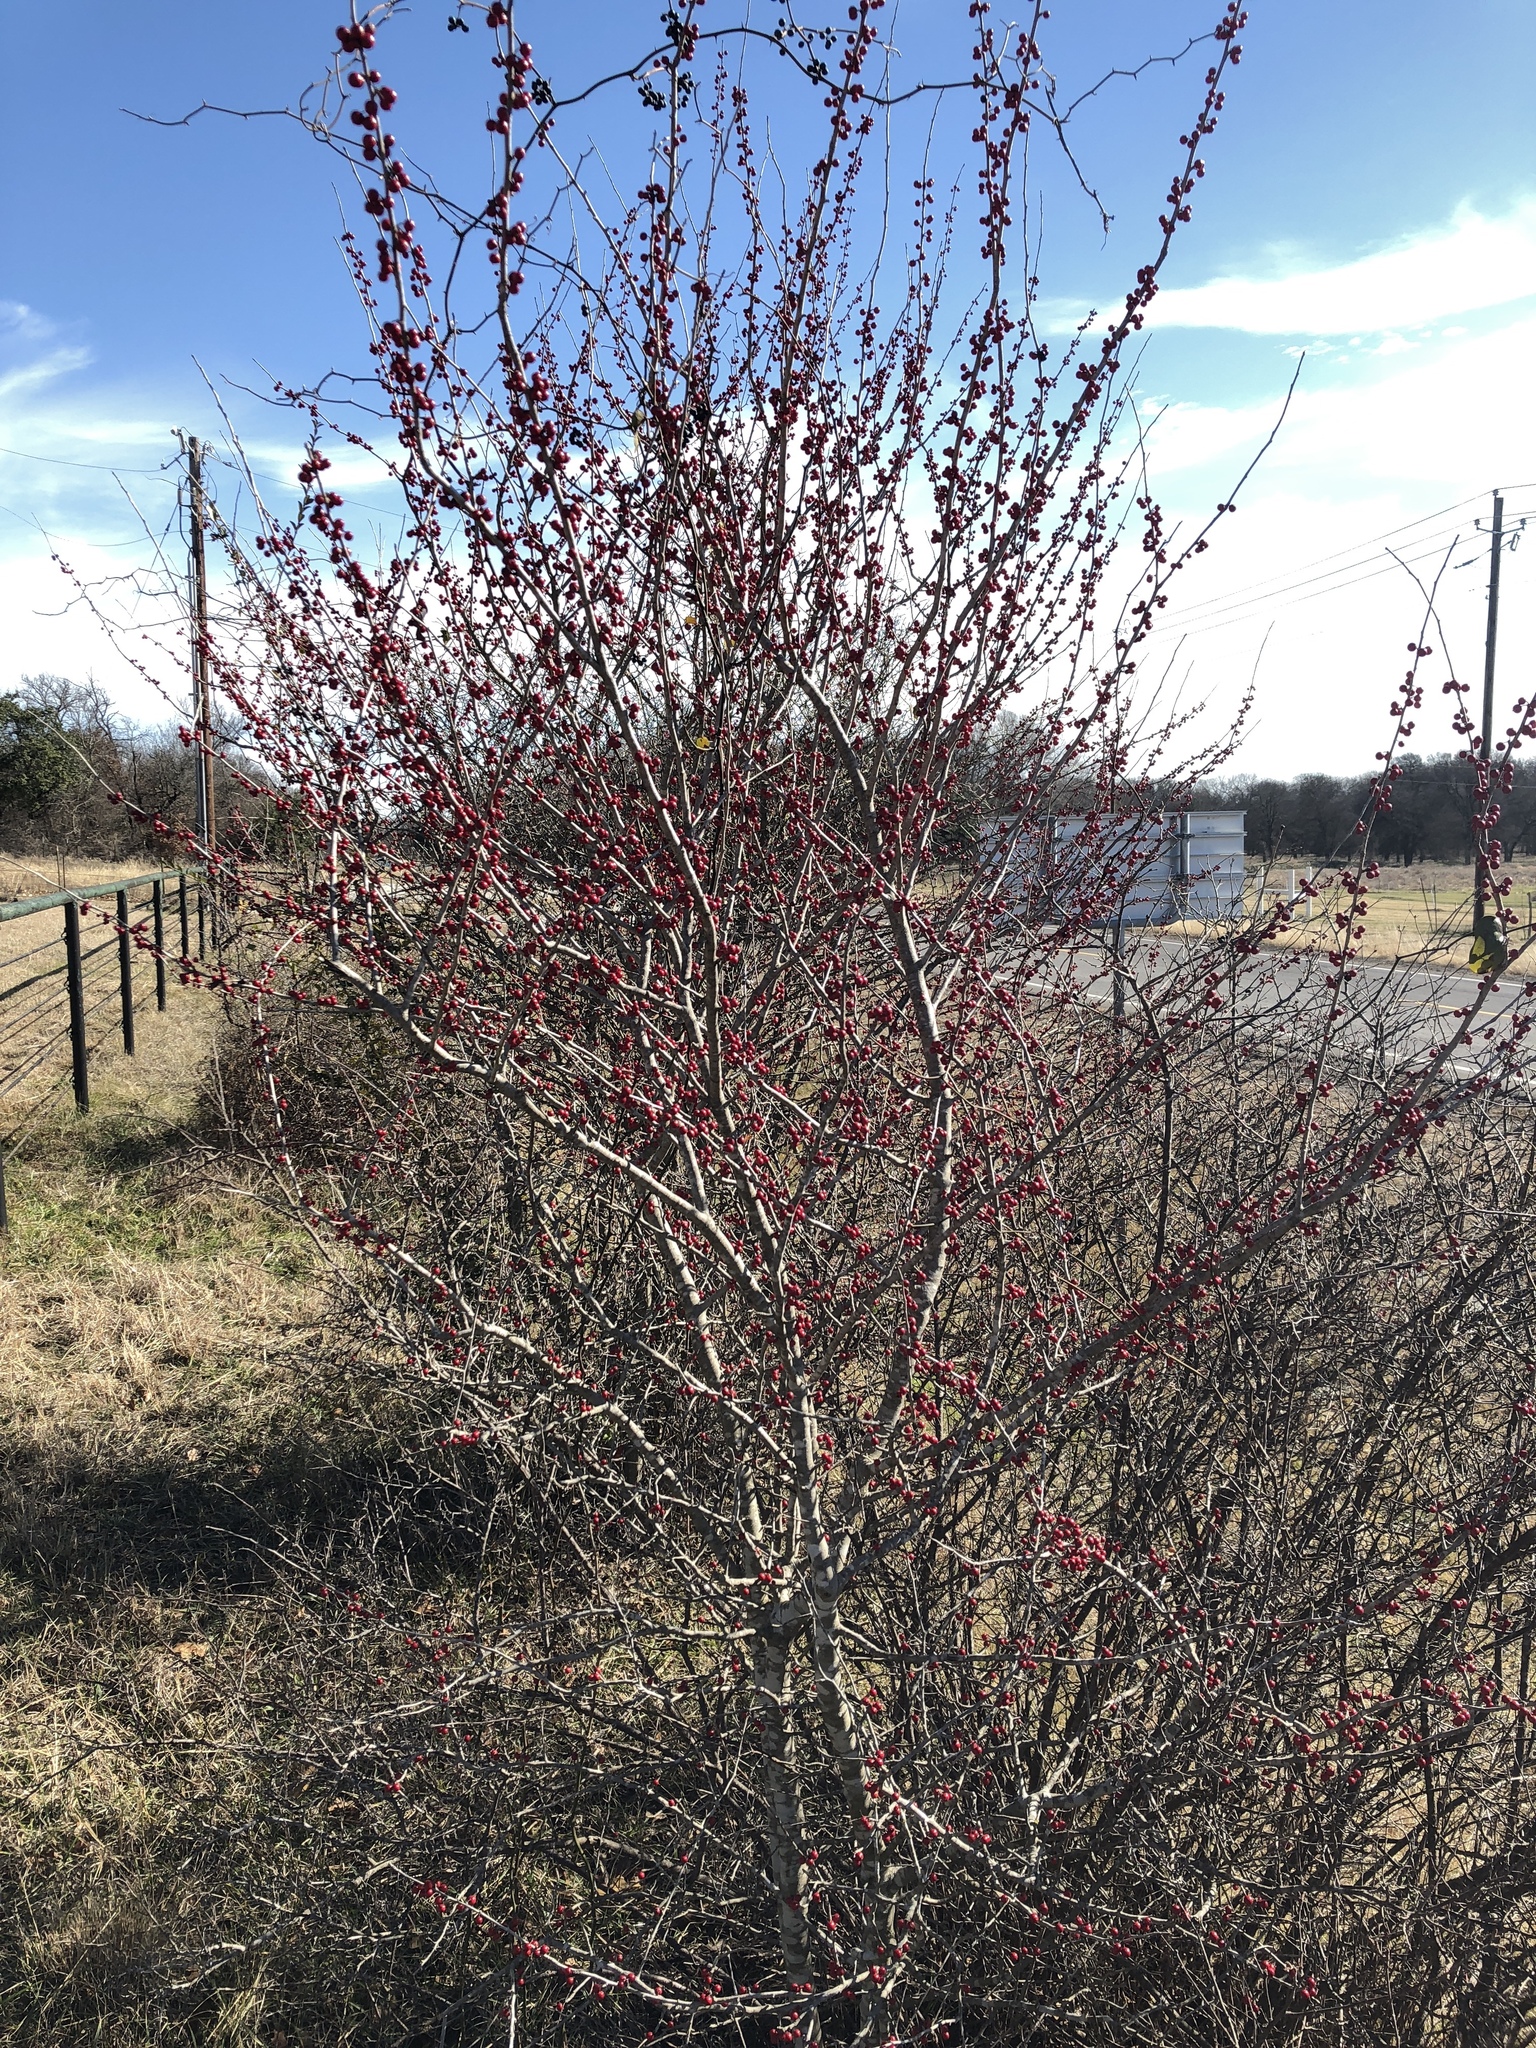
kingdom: Plantae
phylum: Tracheophyta
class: Magnoliopsida
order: Aquifoliales
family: Aquifoliaceae
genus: Ilex
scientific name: Ilex decidua
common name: Possum-haw
